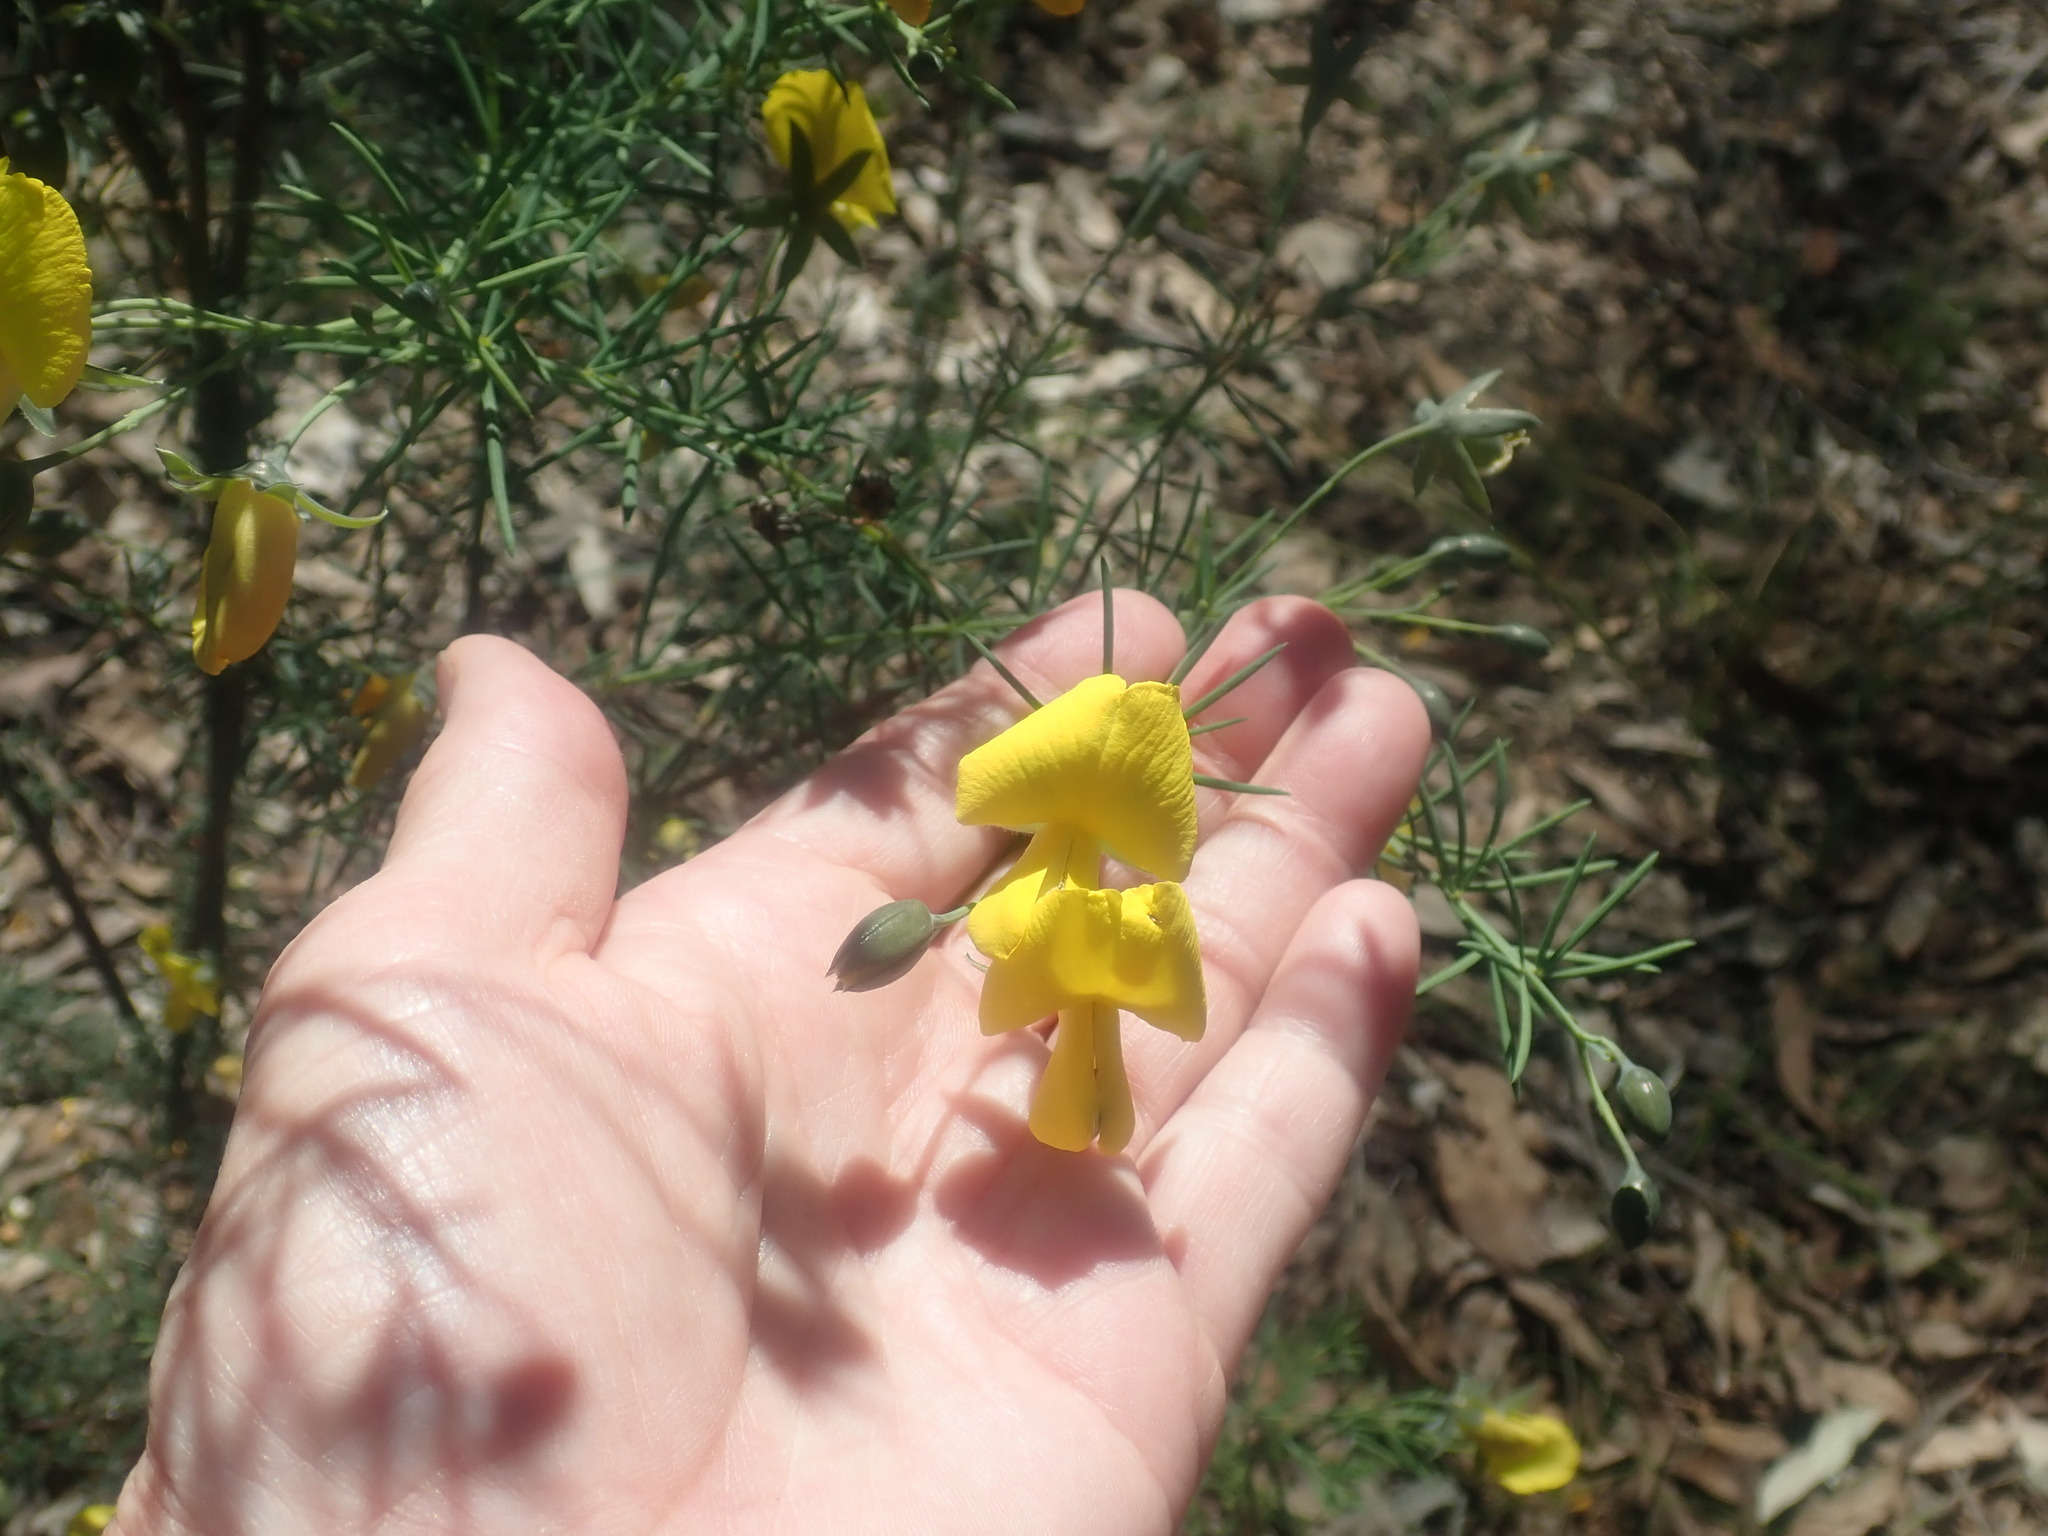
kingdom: Plantae
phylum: Tracheophyta
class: Magnoliopsida
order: Fabales
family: Fabaceae
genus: Gompholobium
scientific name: Gompholobium huegelii
